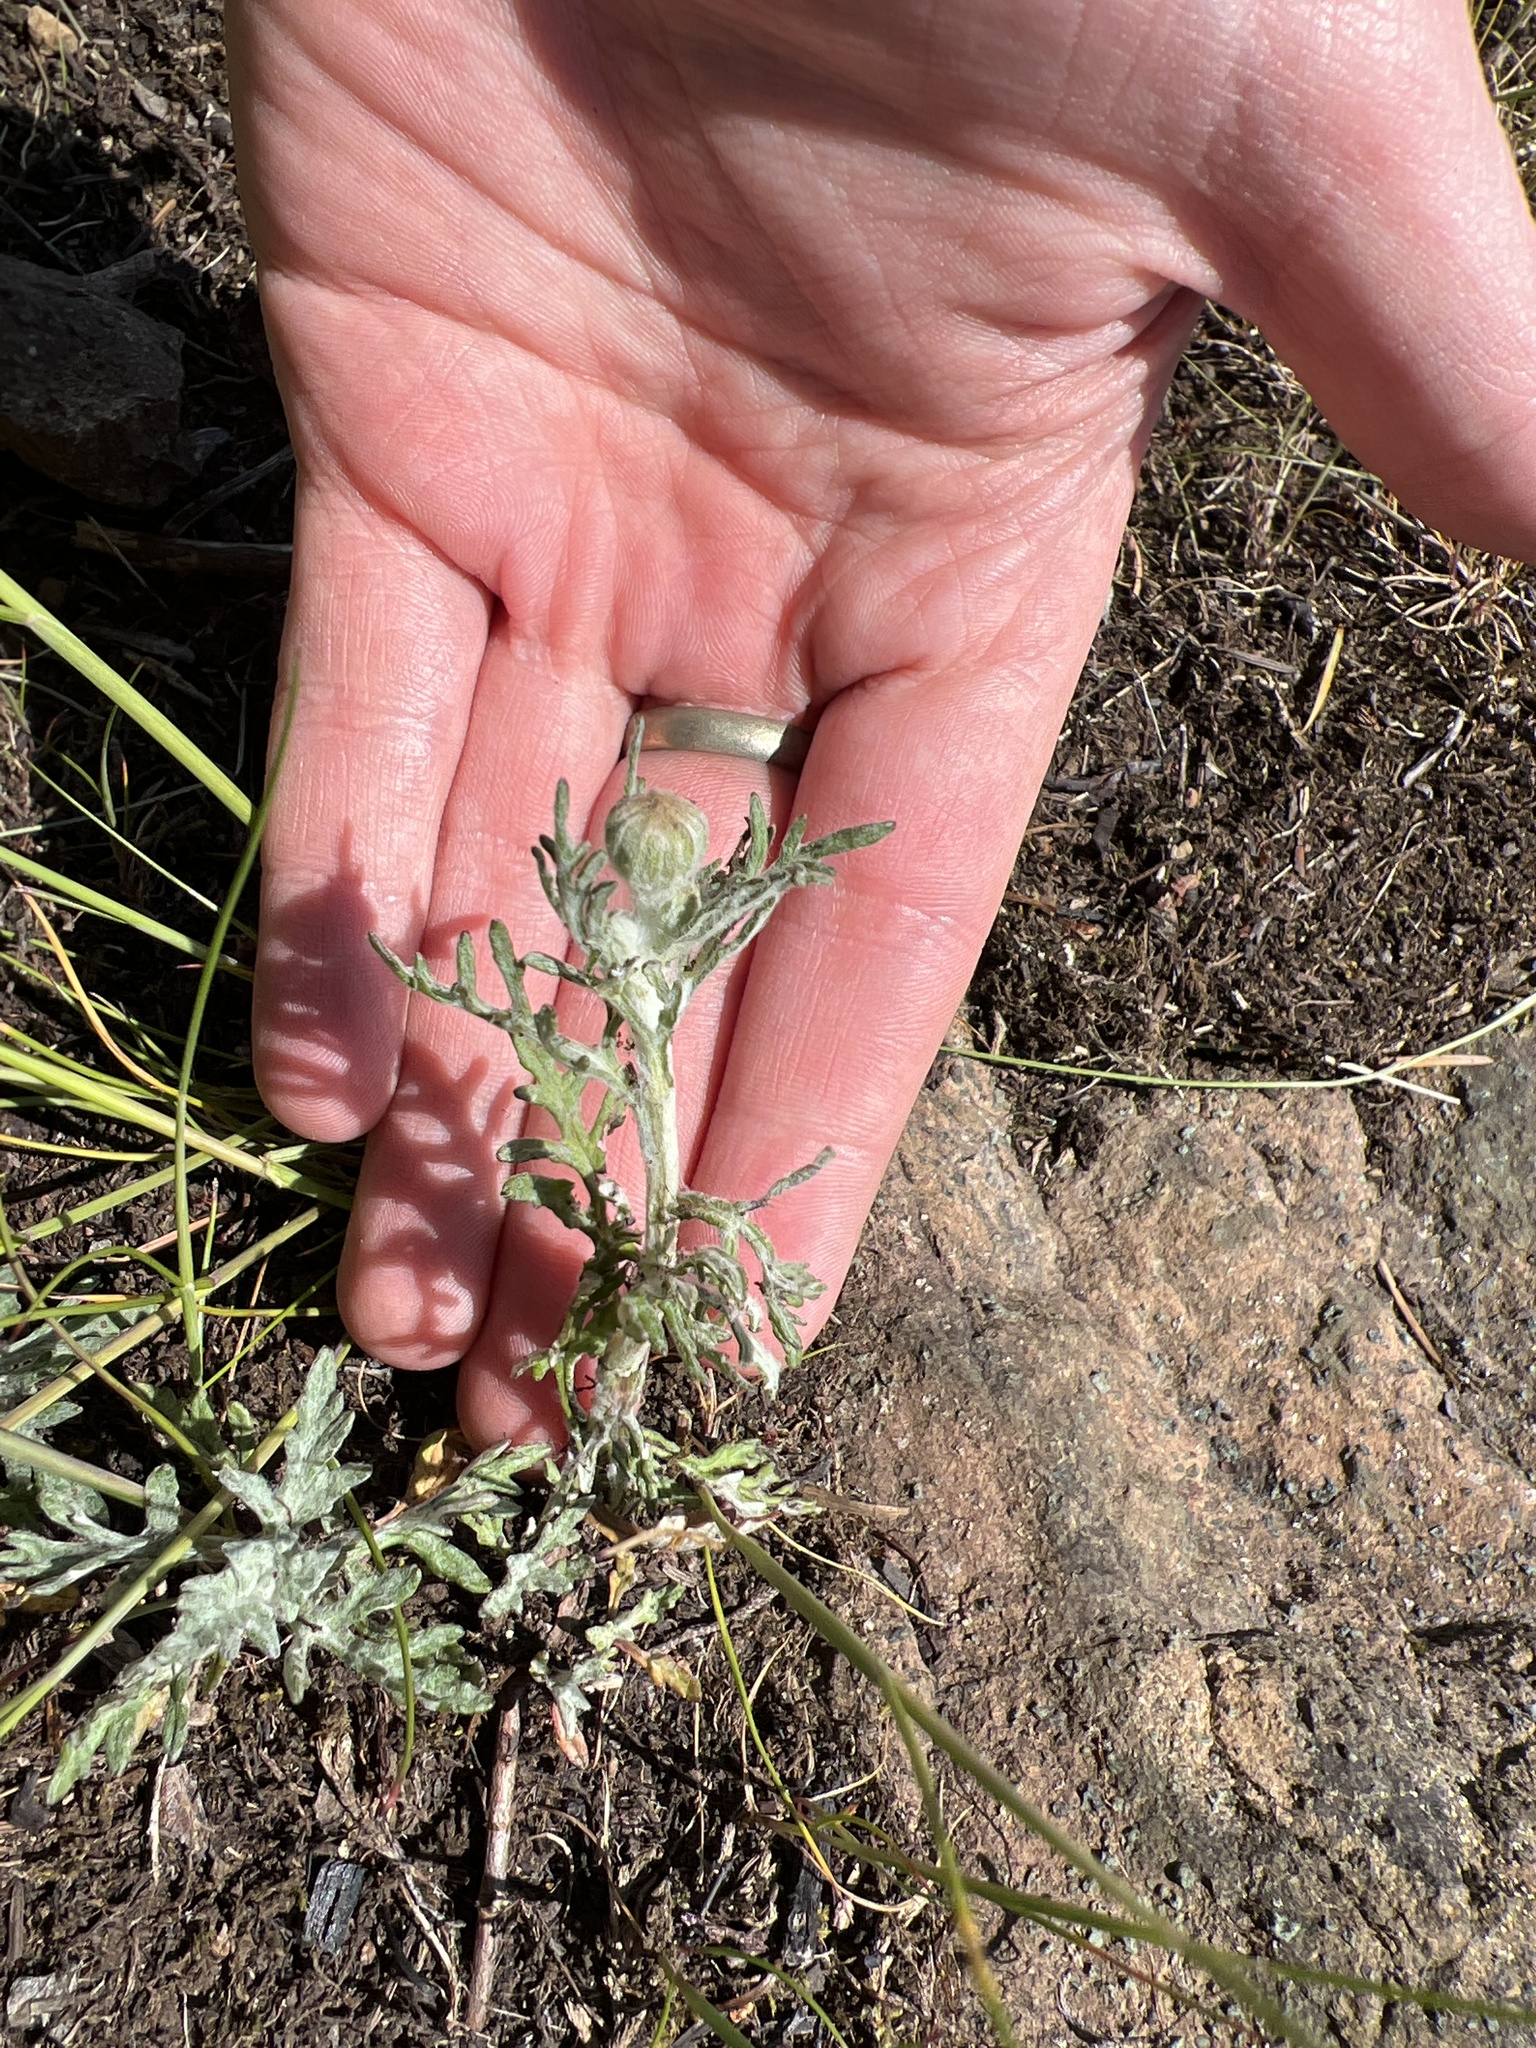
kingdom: Plantae
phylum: Tracheophyta
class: Magnoliopsida
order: Asterales
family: Asteraceae
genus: Eriophyllum
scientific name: Eriophyllum lanatum
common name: Common woolly-sunflower
